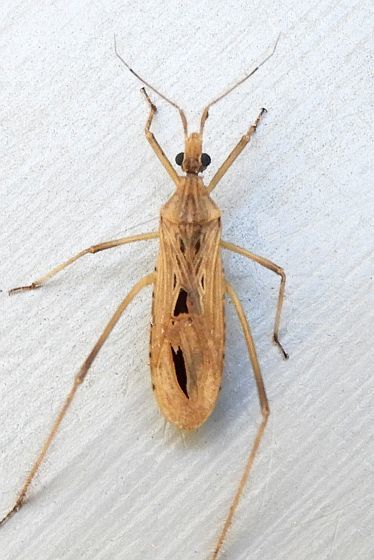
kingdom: Animalia
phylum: Arthropoda
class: Insecta
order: Hemiptera
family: Reduviidae
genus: Narvesus
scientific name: Narvesus carolinensis
